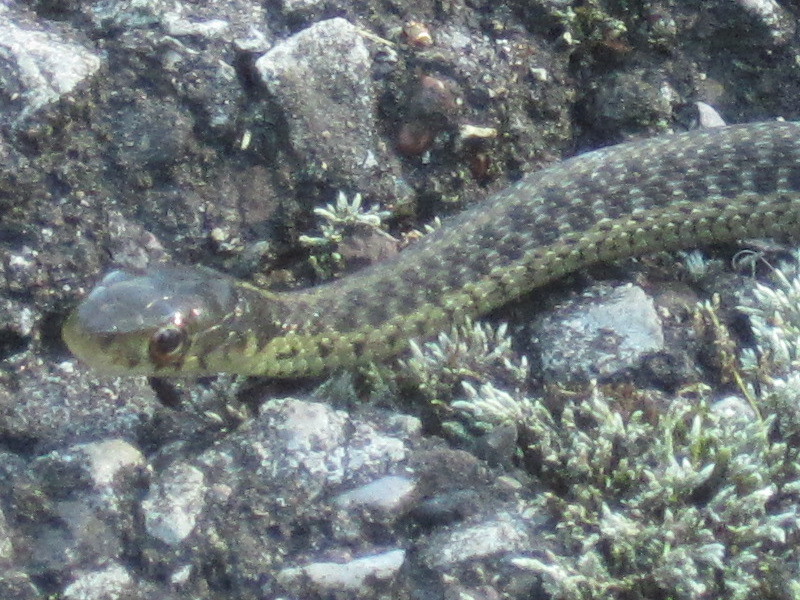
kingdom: Animalia
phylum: Chordata
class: Squamata
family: Colubridae
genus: Thamnophis
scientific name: Thamnophis sirtalis
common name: Common garter snake
